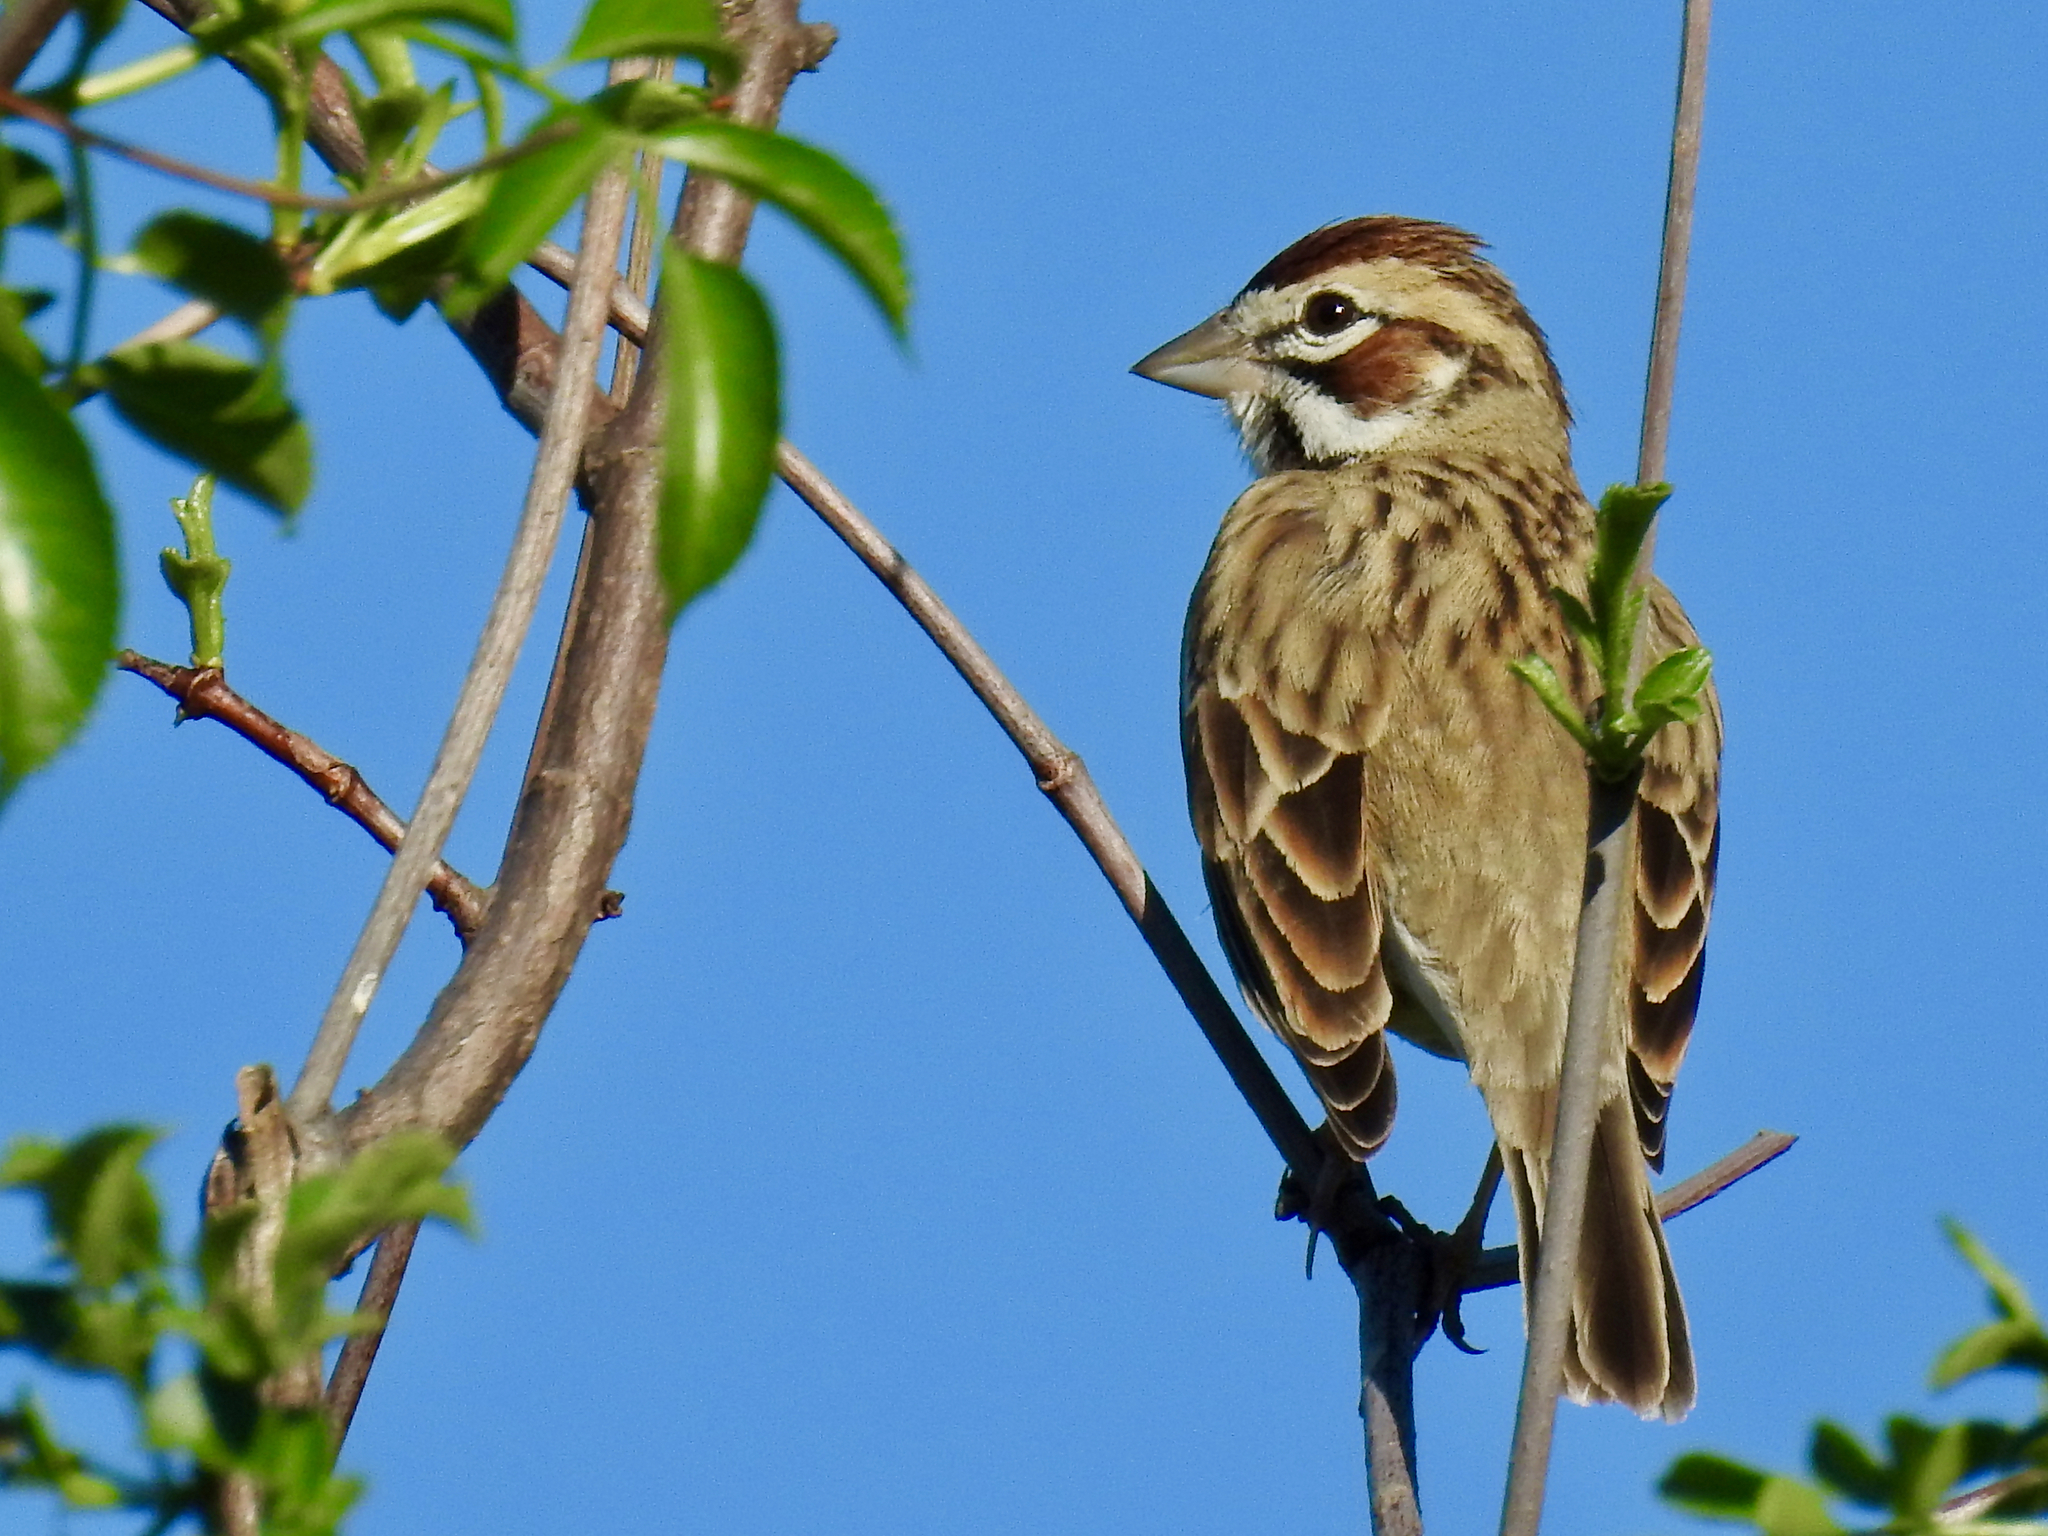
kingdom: Animalia
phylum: Chordata
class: Aves
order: Passeriformes
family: Passerellidae
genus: Chondestes
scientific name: Chondestes grammacus
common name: Lark sparrow
